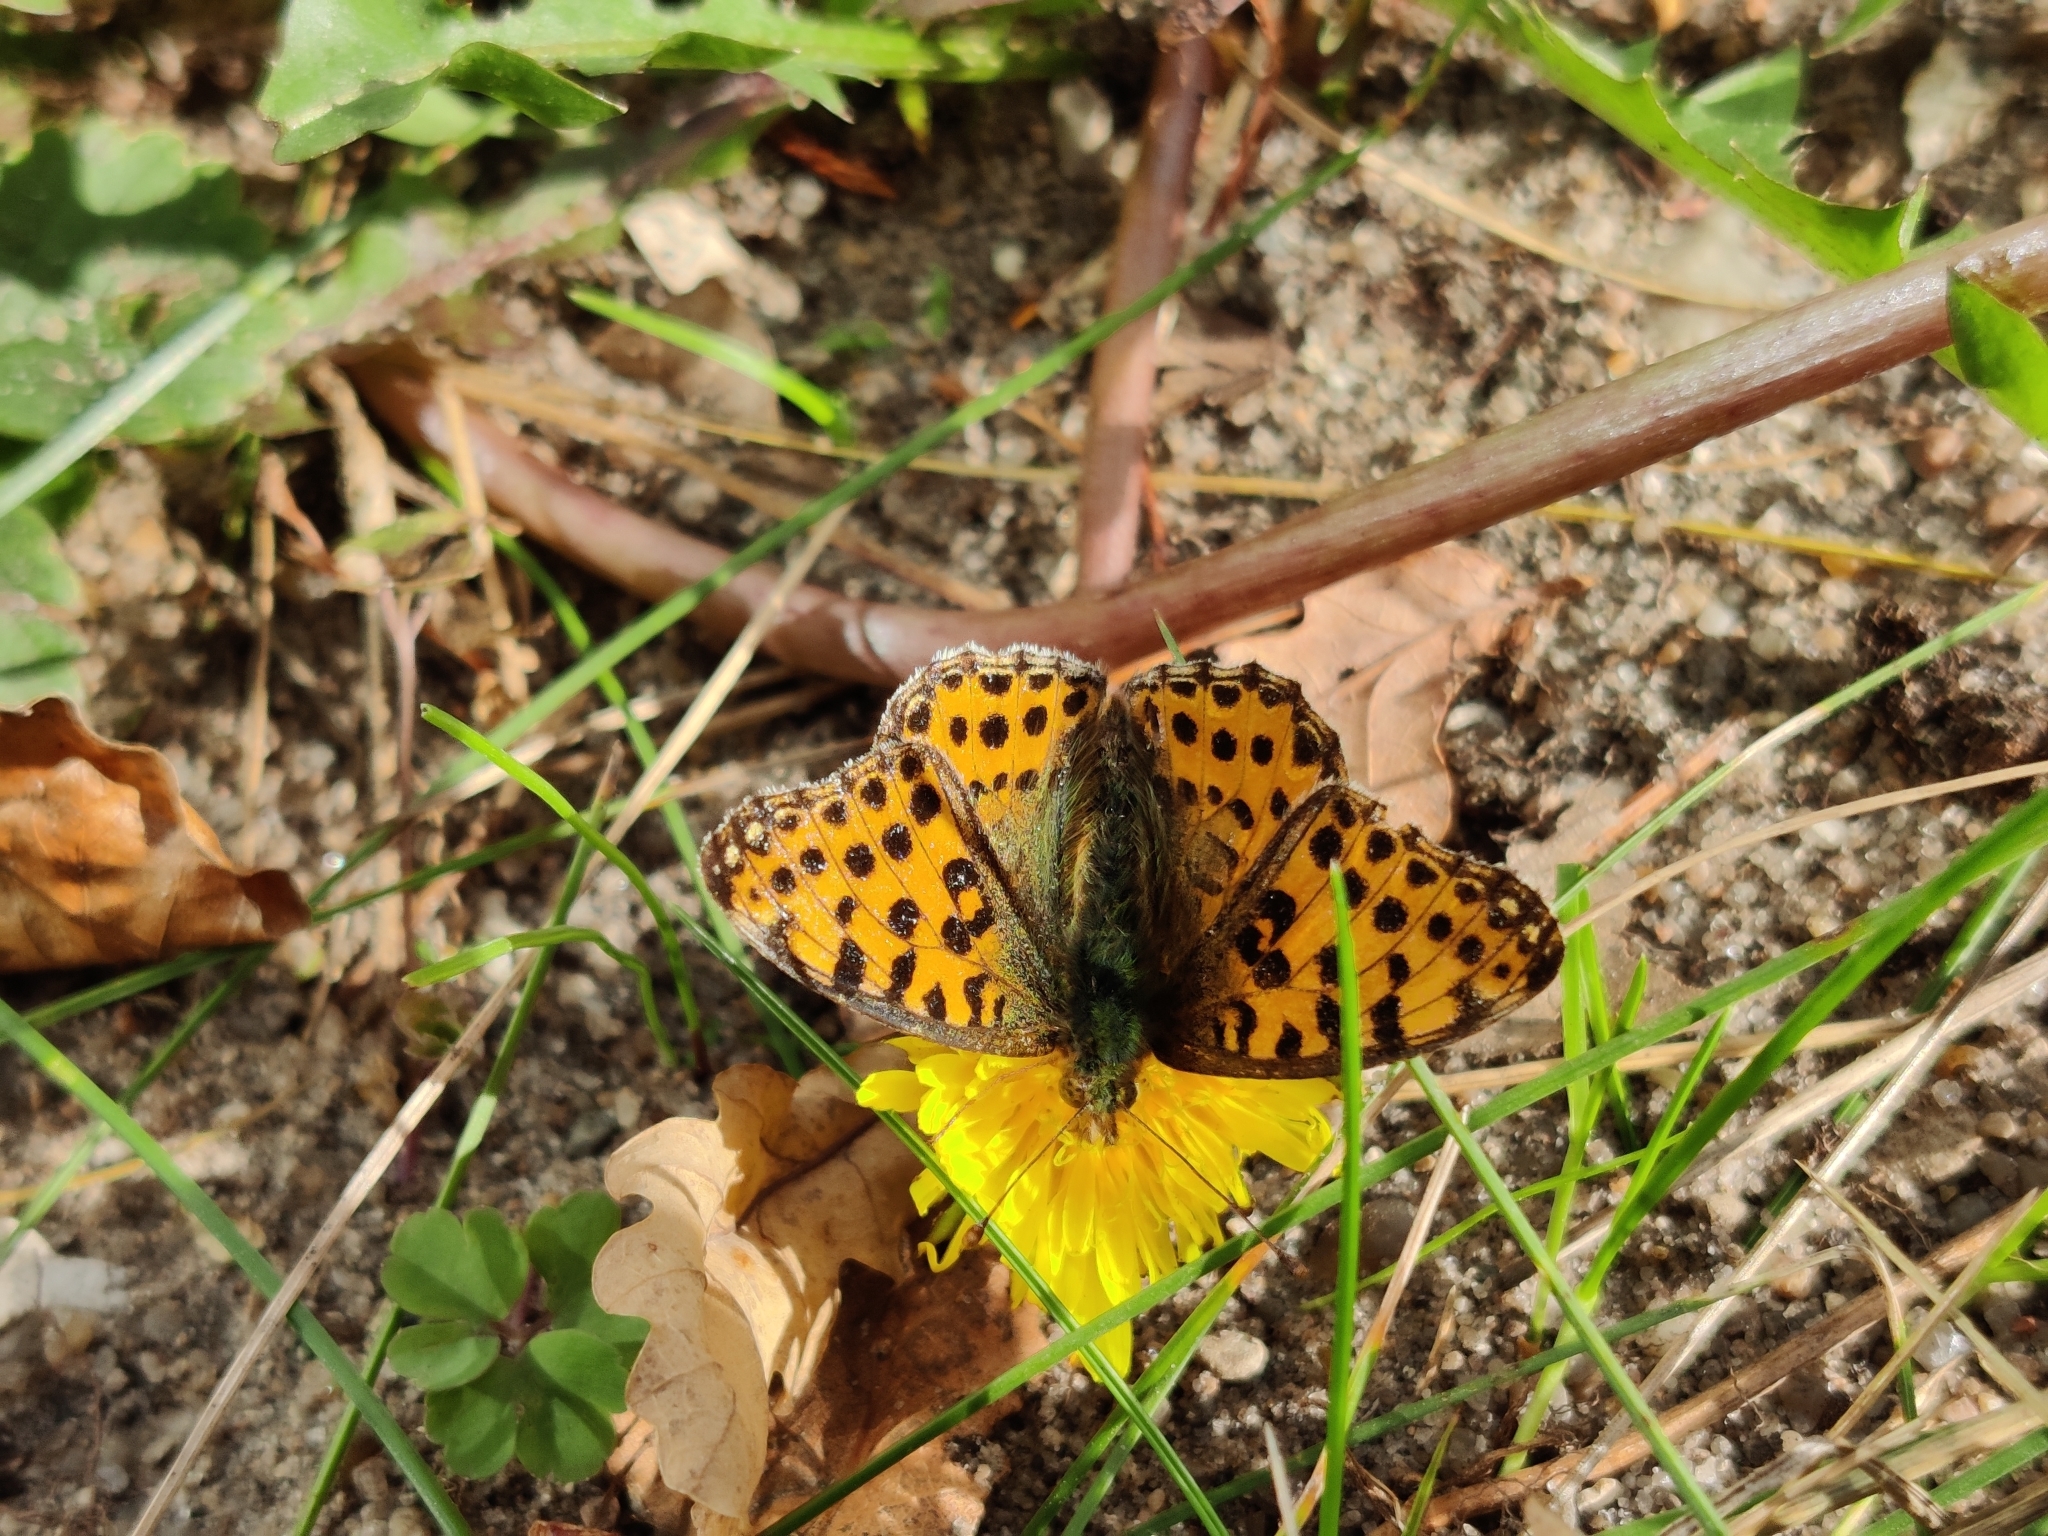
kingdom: Animalia
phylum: Arthropoda
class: Insecta
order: Lepidoptera
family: Nymphalidae
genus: Issoria
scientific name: Issoria lathonia
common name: Queen of spain fritillary
